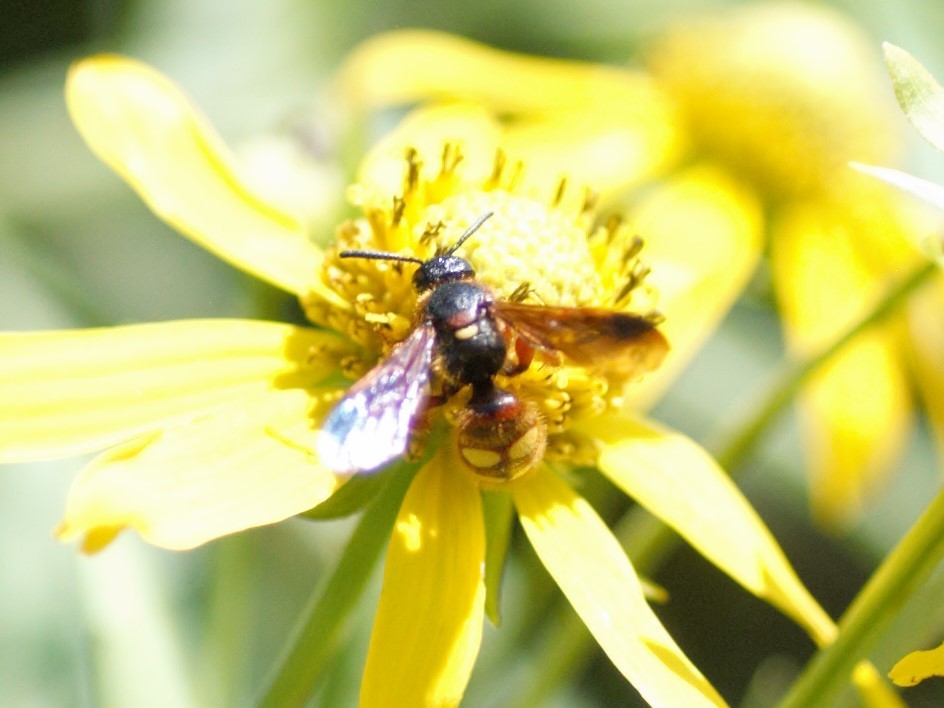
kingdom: Animalia
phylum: Arthropoda
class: Insecta
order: Hymenoptera
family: Scoliidae
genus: Scolia
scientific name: Scolia nobilitata
